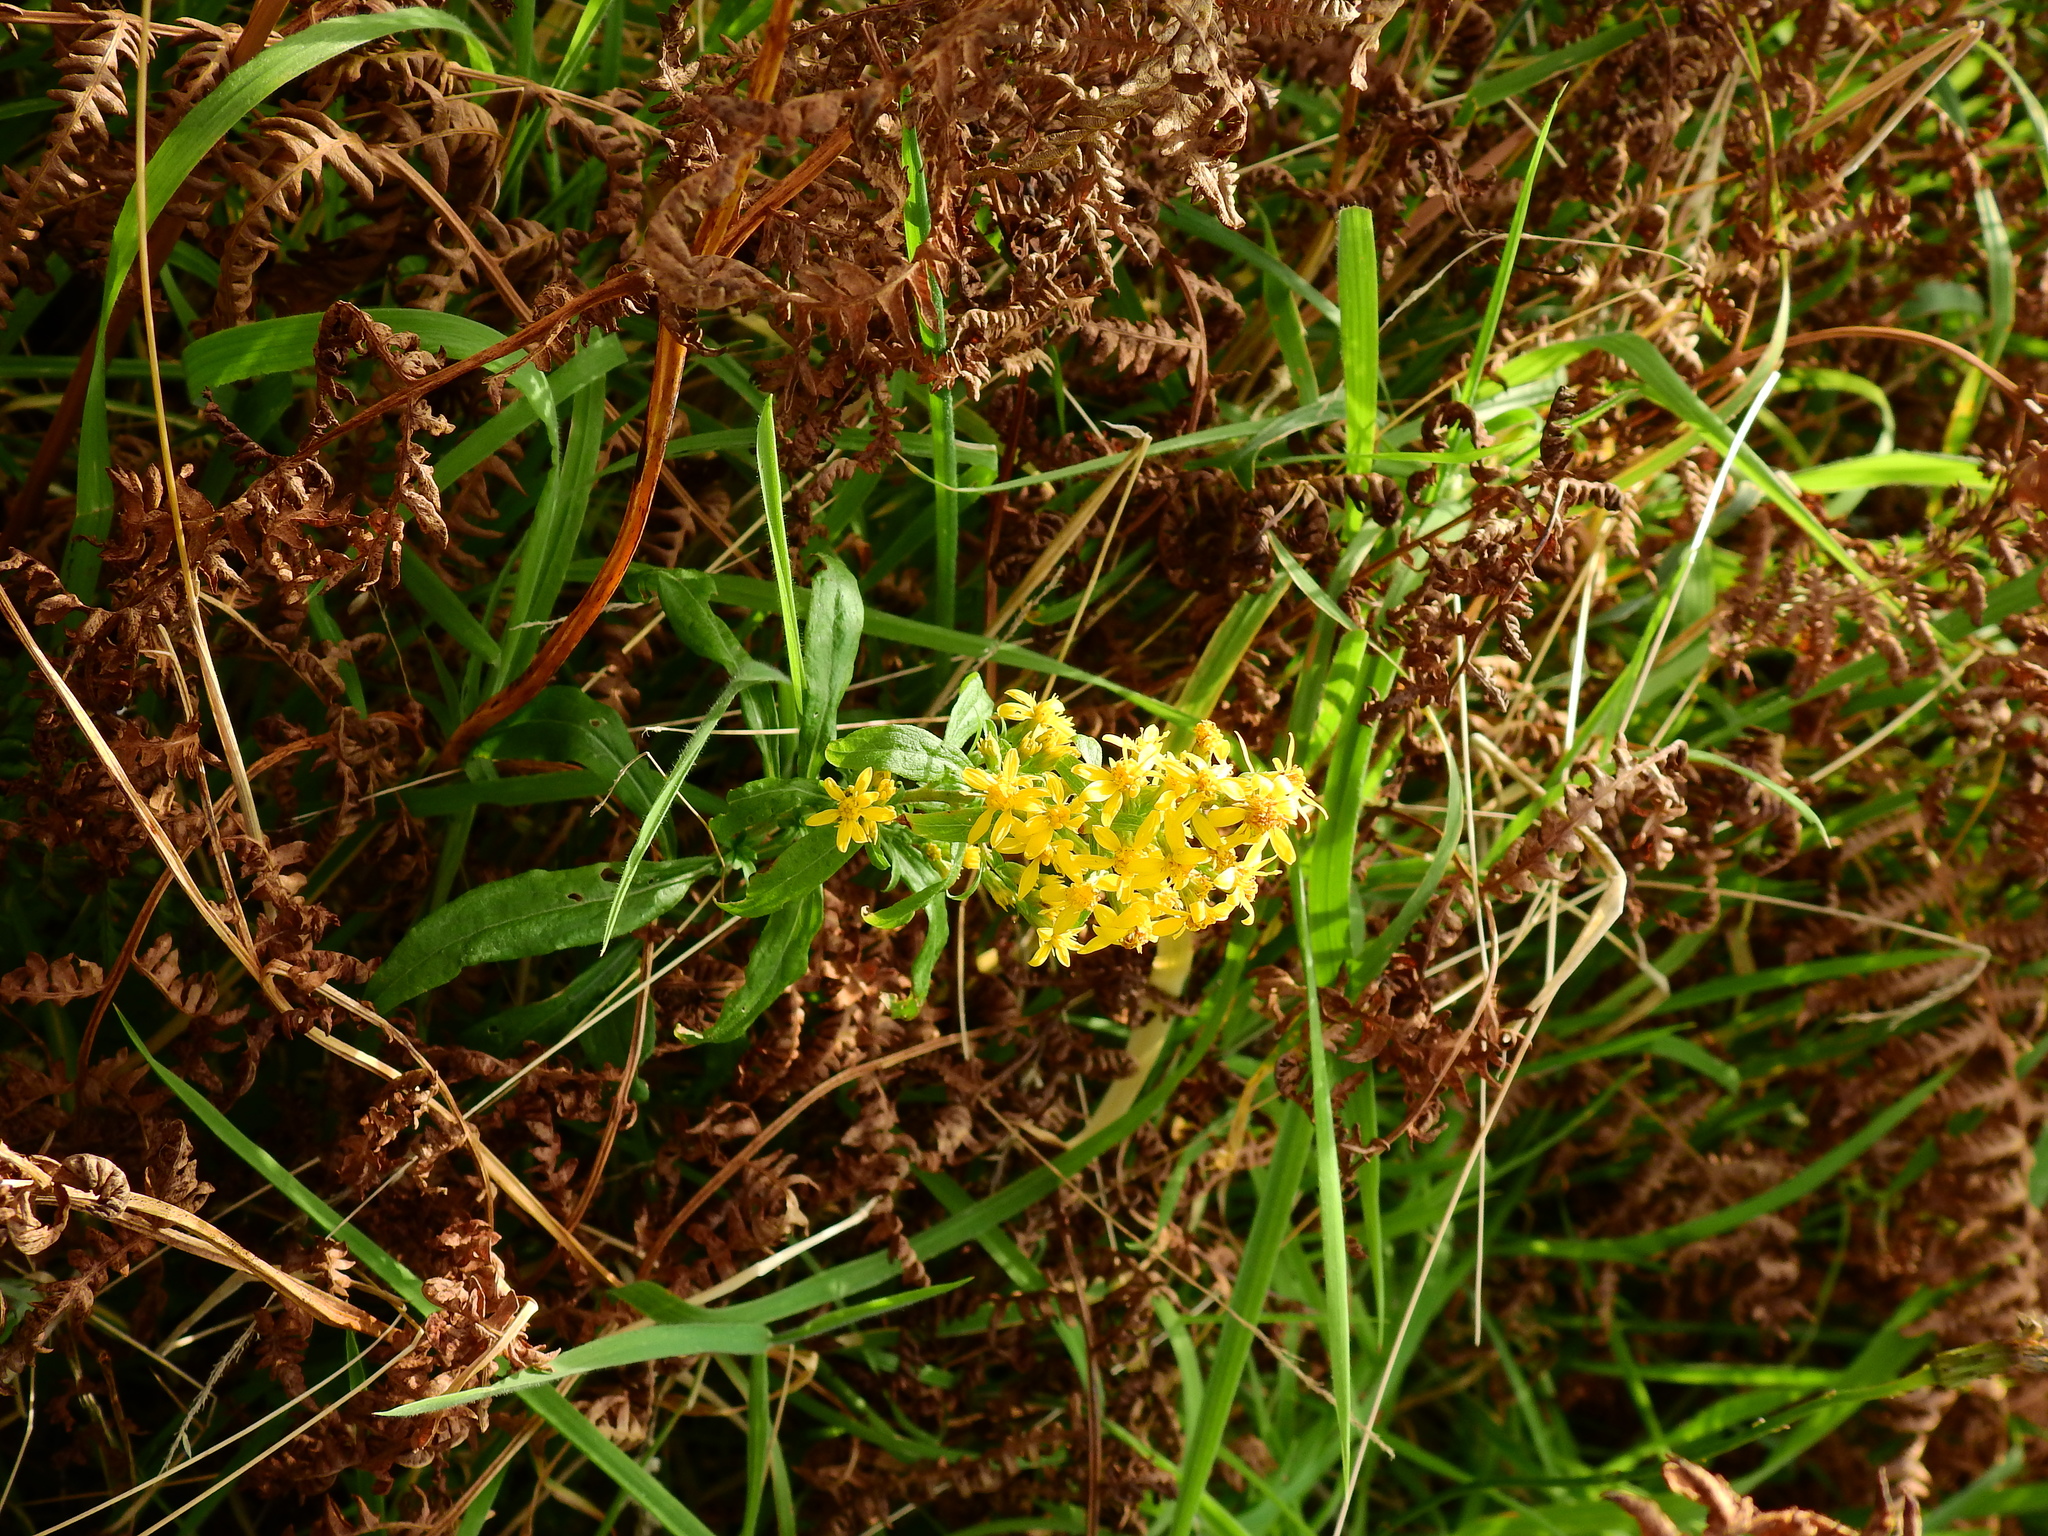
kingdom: Plantae
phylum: Tracheophyta
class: Magnoliopsida
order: Asterales
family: Asteraceae
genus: Solidago
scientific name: Solidago virgaurea
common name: Goldenrod
